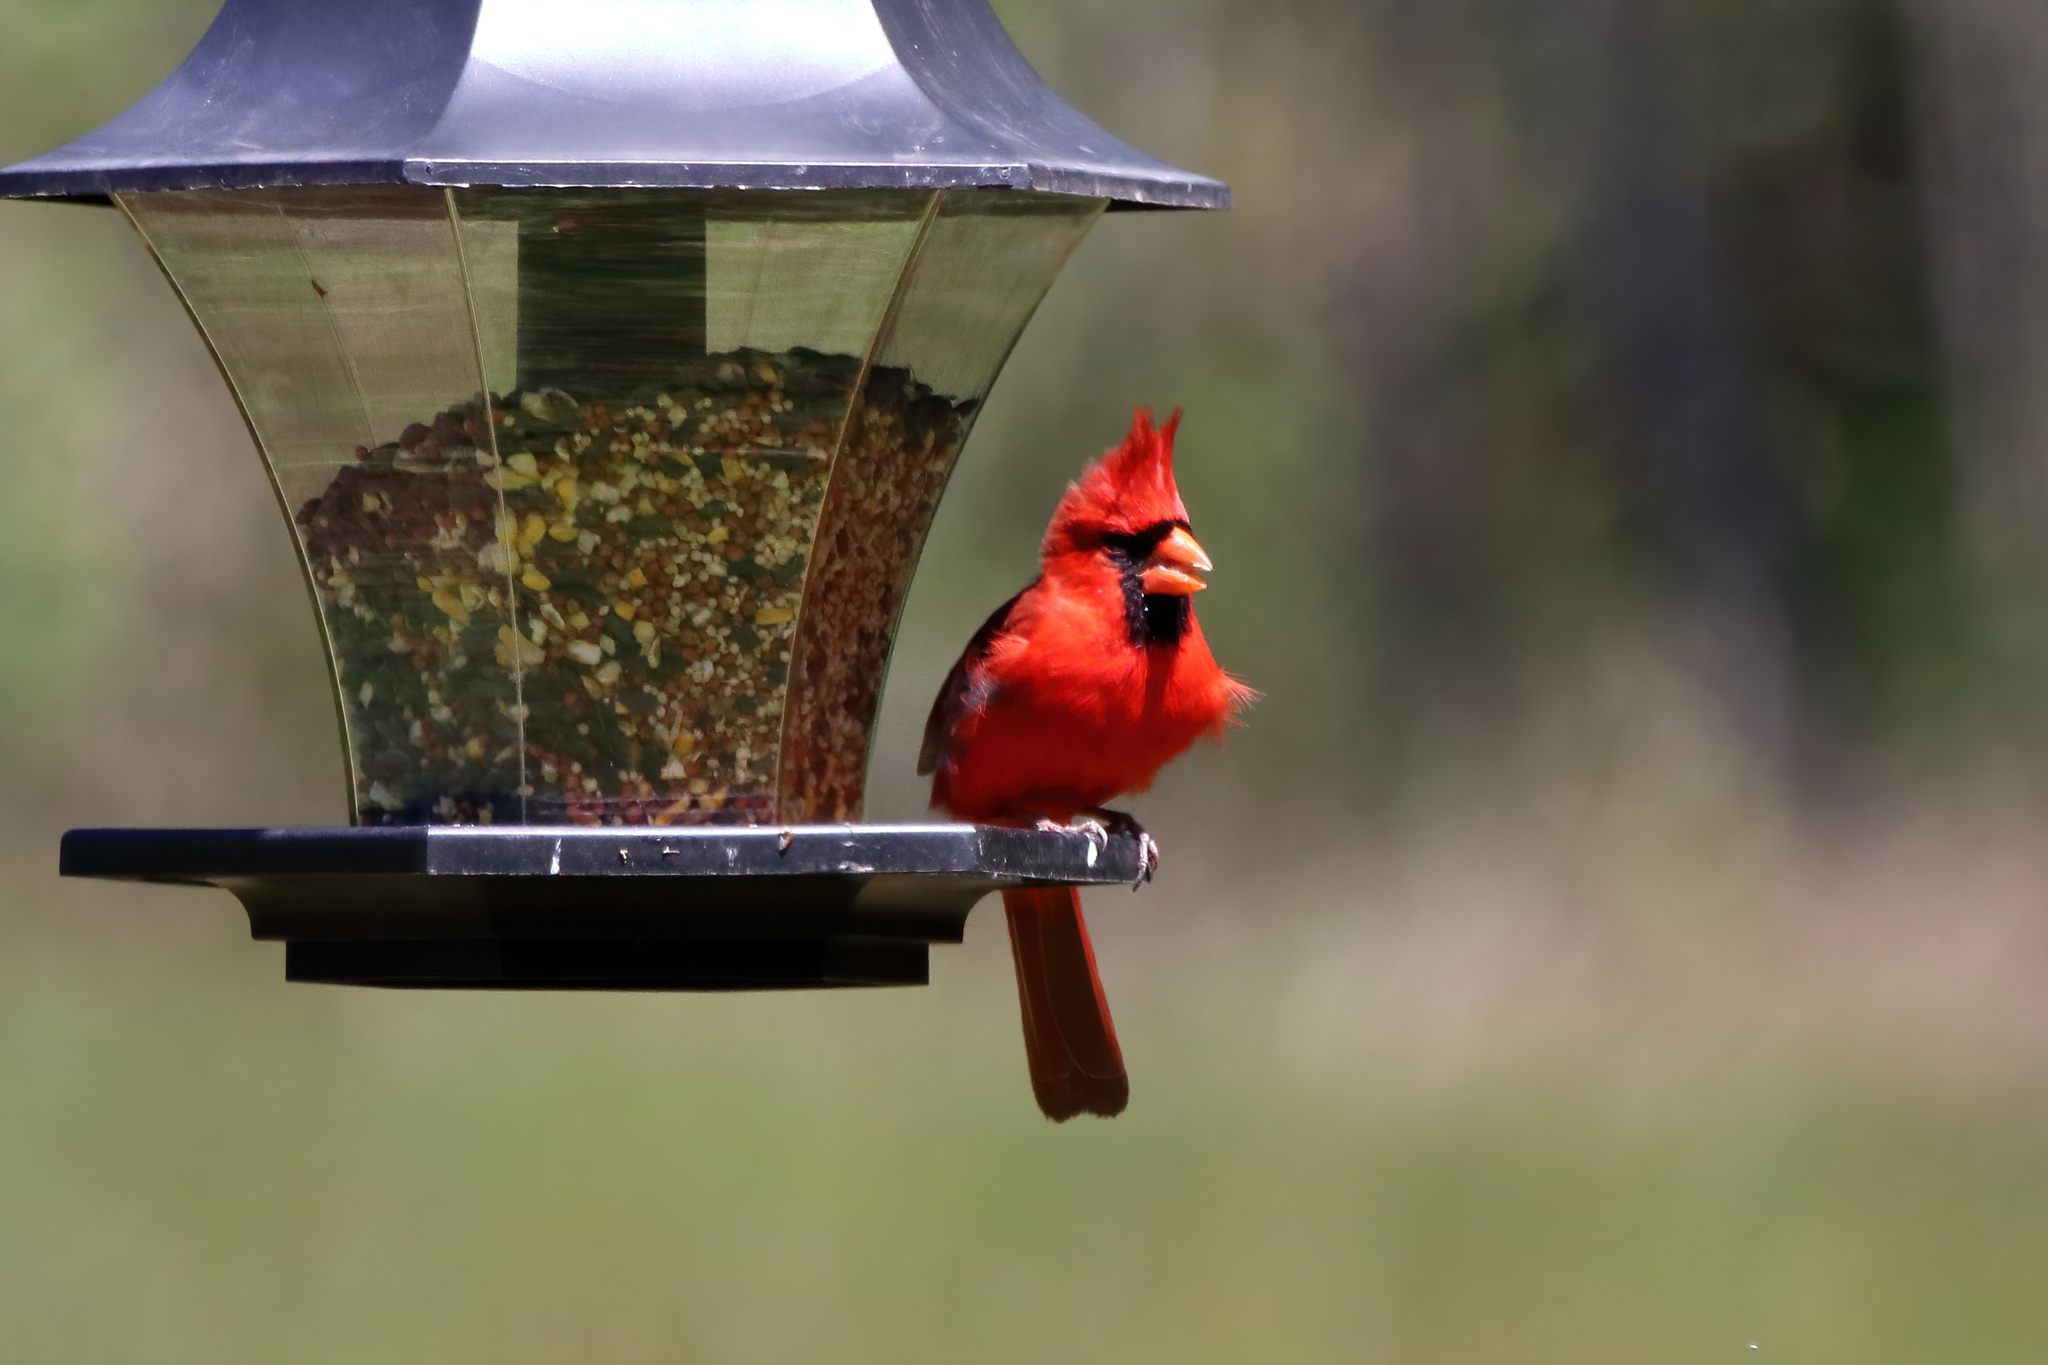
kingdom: Animalia
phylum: Chordata
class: Aves
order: Passeriformes
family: Cardinalidae
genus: Cardinalis
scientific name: Cardinalis cardinalis
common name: Northern cardinal
